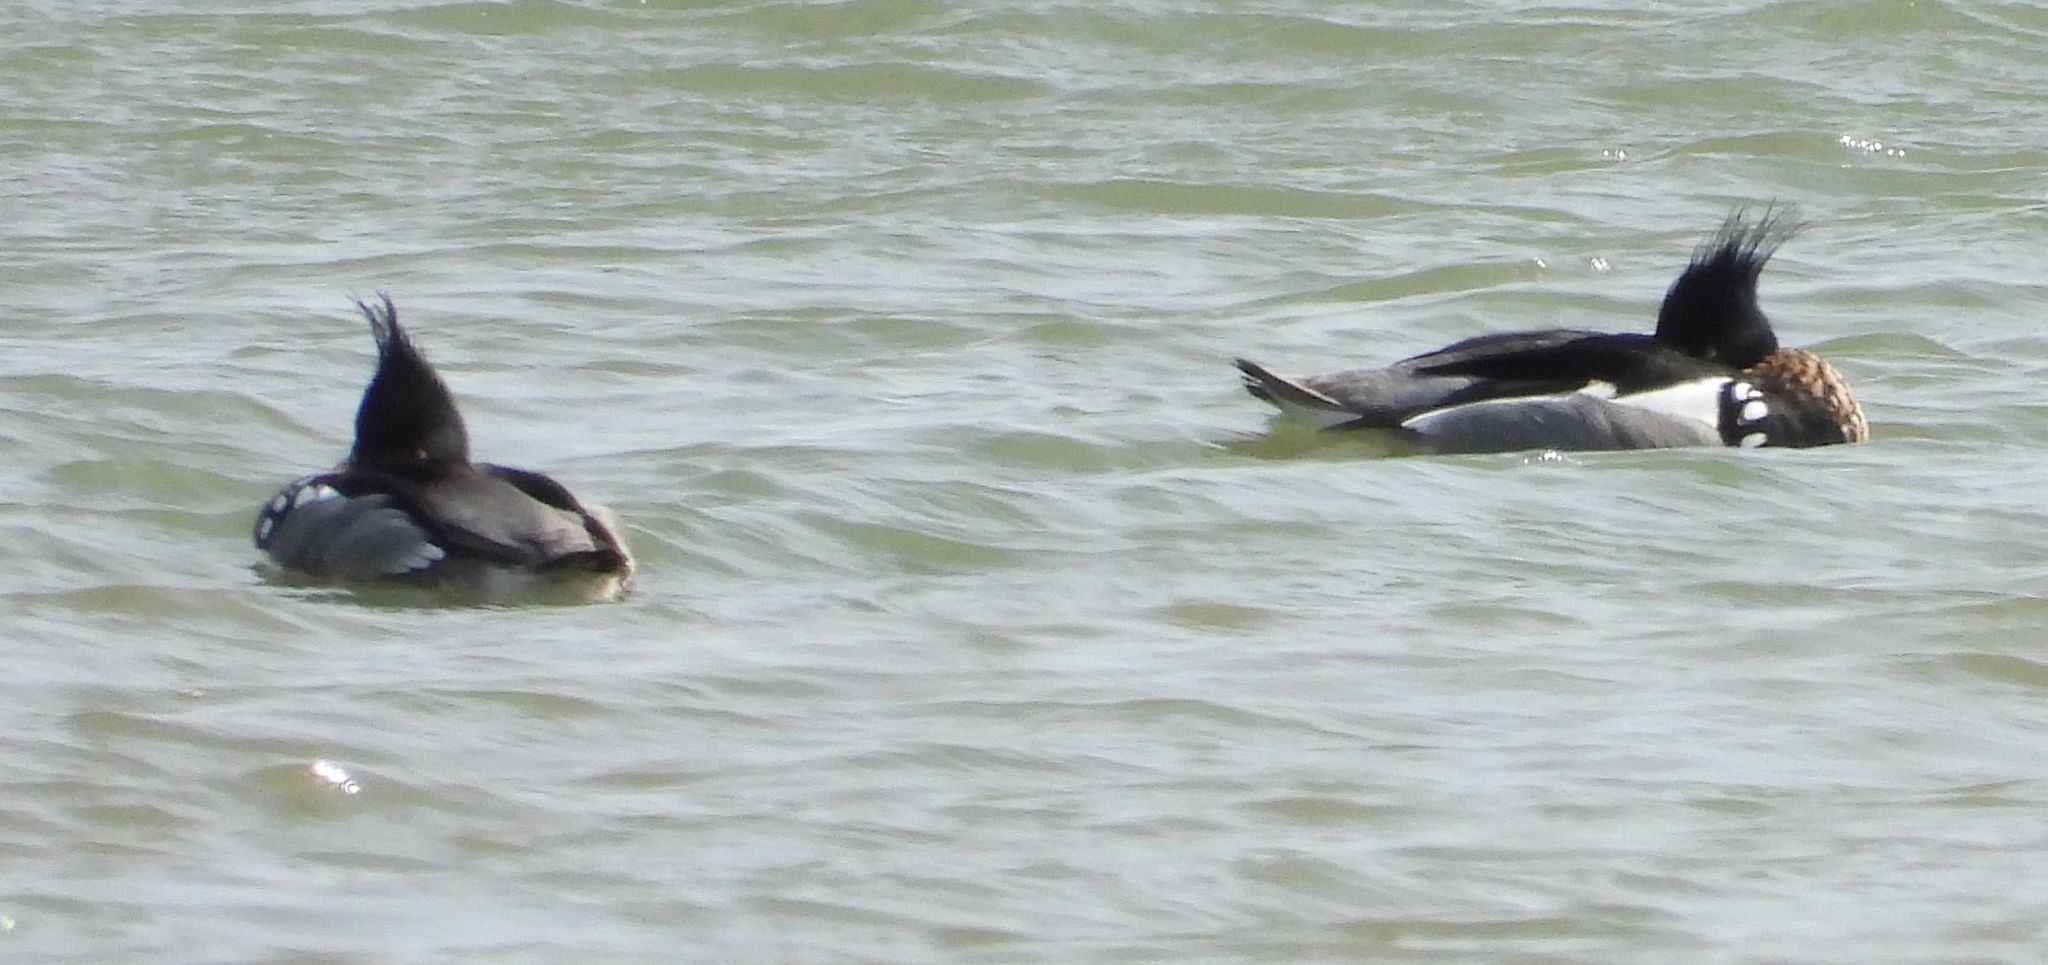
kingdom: Animalia
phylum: Chordata
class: Aves
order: Anseriformes
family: Anatidae
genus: Mergus
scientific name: Mergus serrator
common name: Red-breasted merganser
